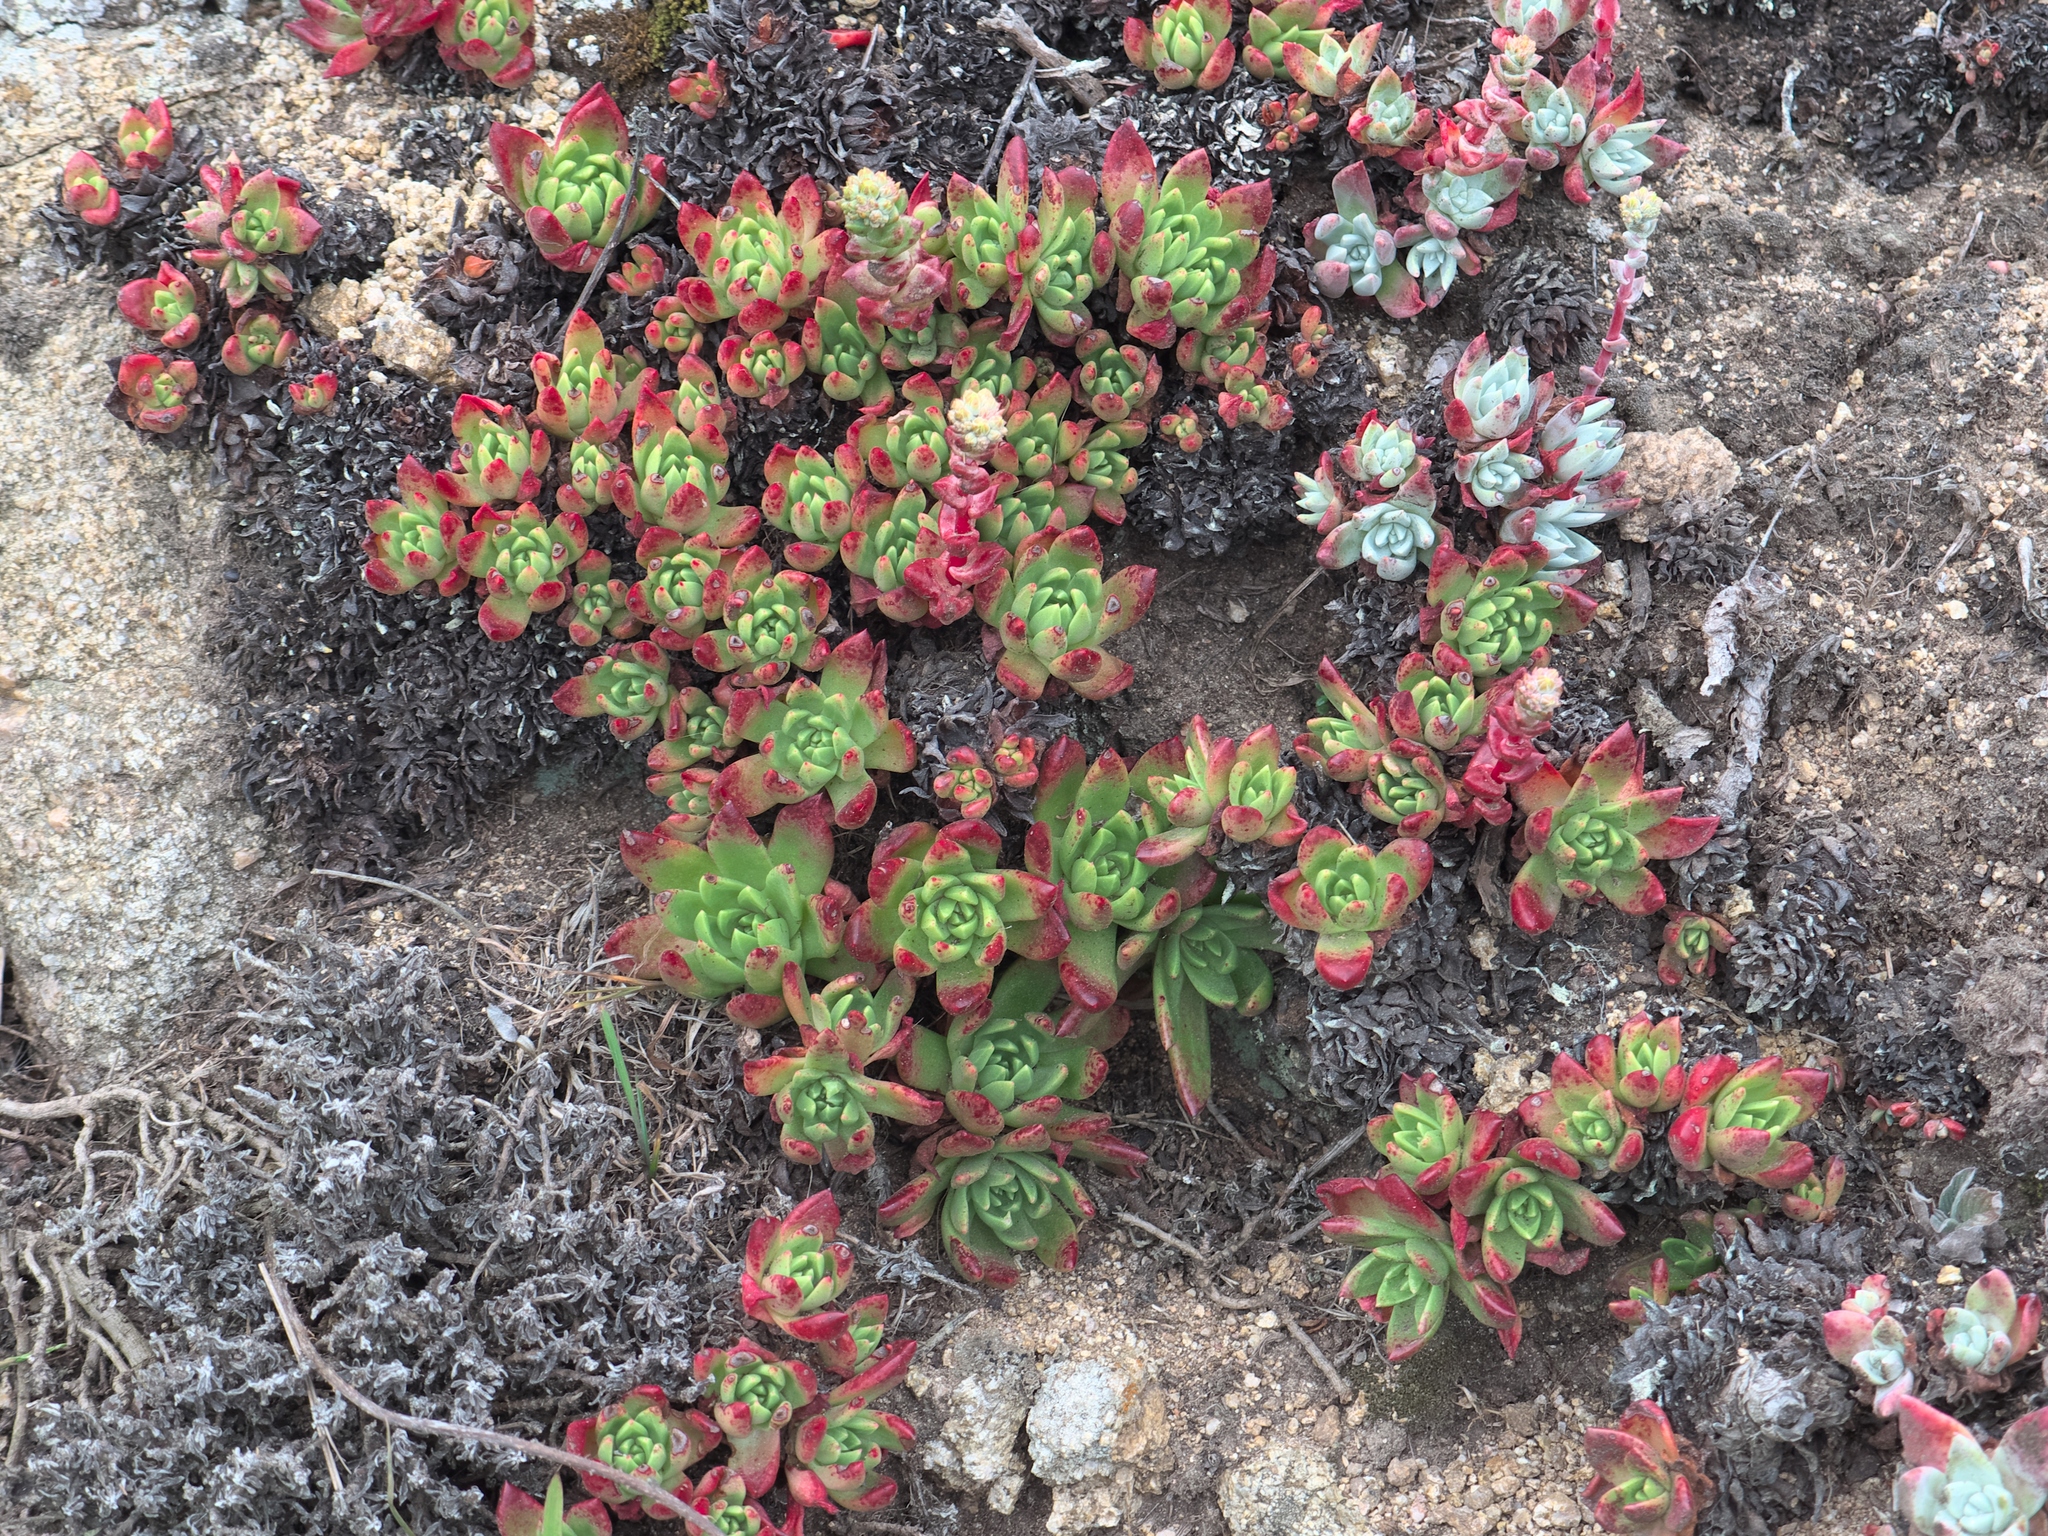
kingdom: Plantae
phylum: Tracheophyta
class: Magnoliopsida
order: Saxifragales
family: Crassulaceae
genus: Dudleya
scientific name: Dudleya farinosa
